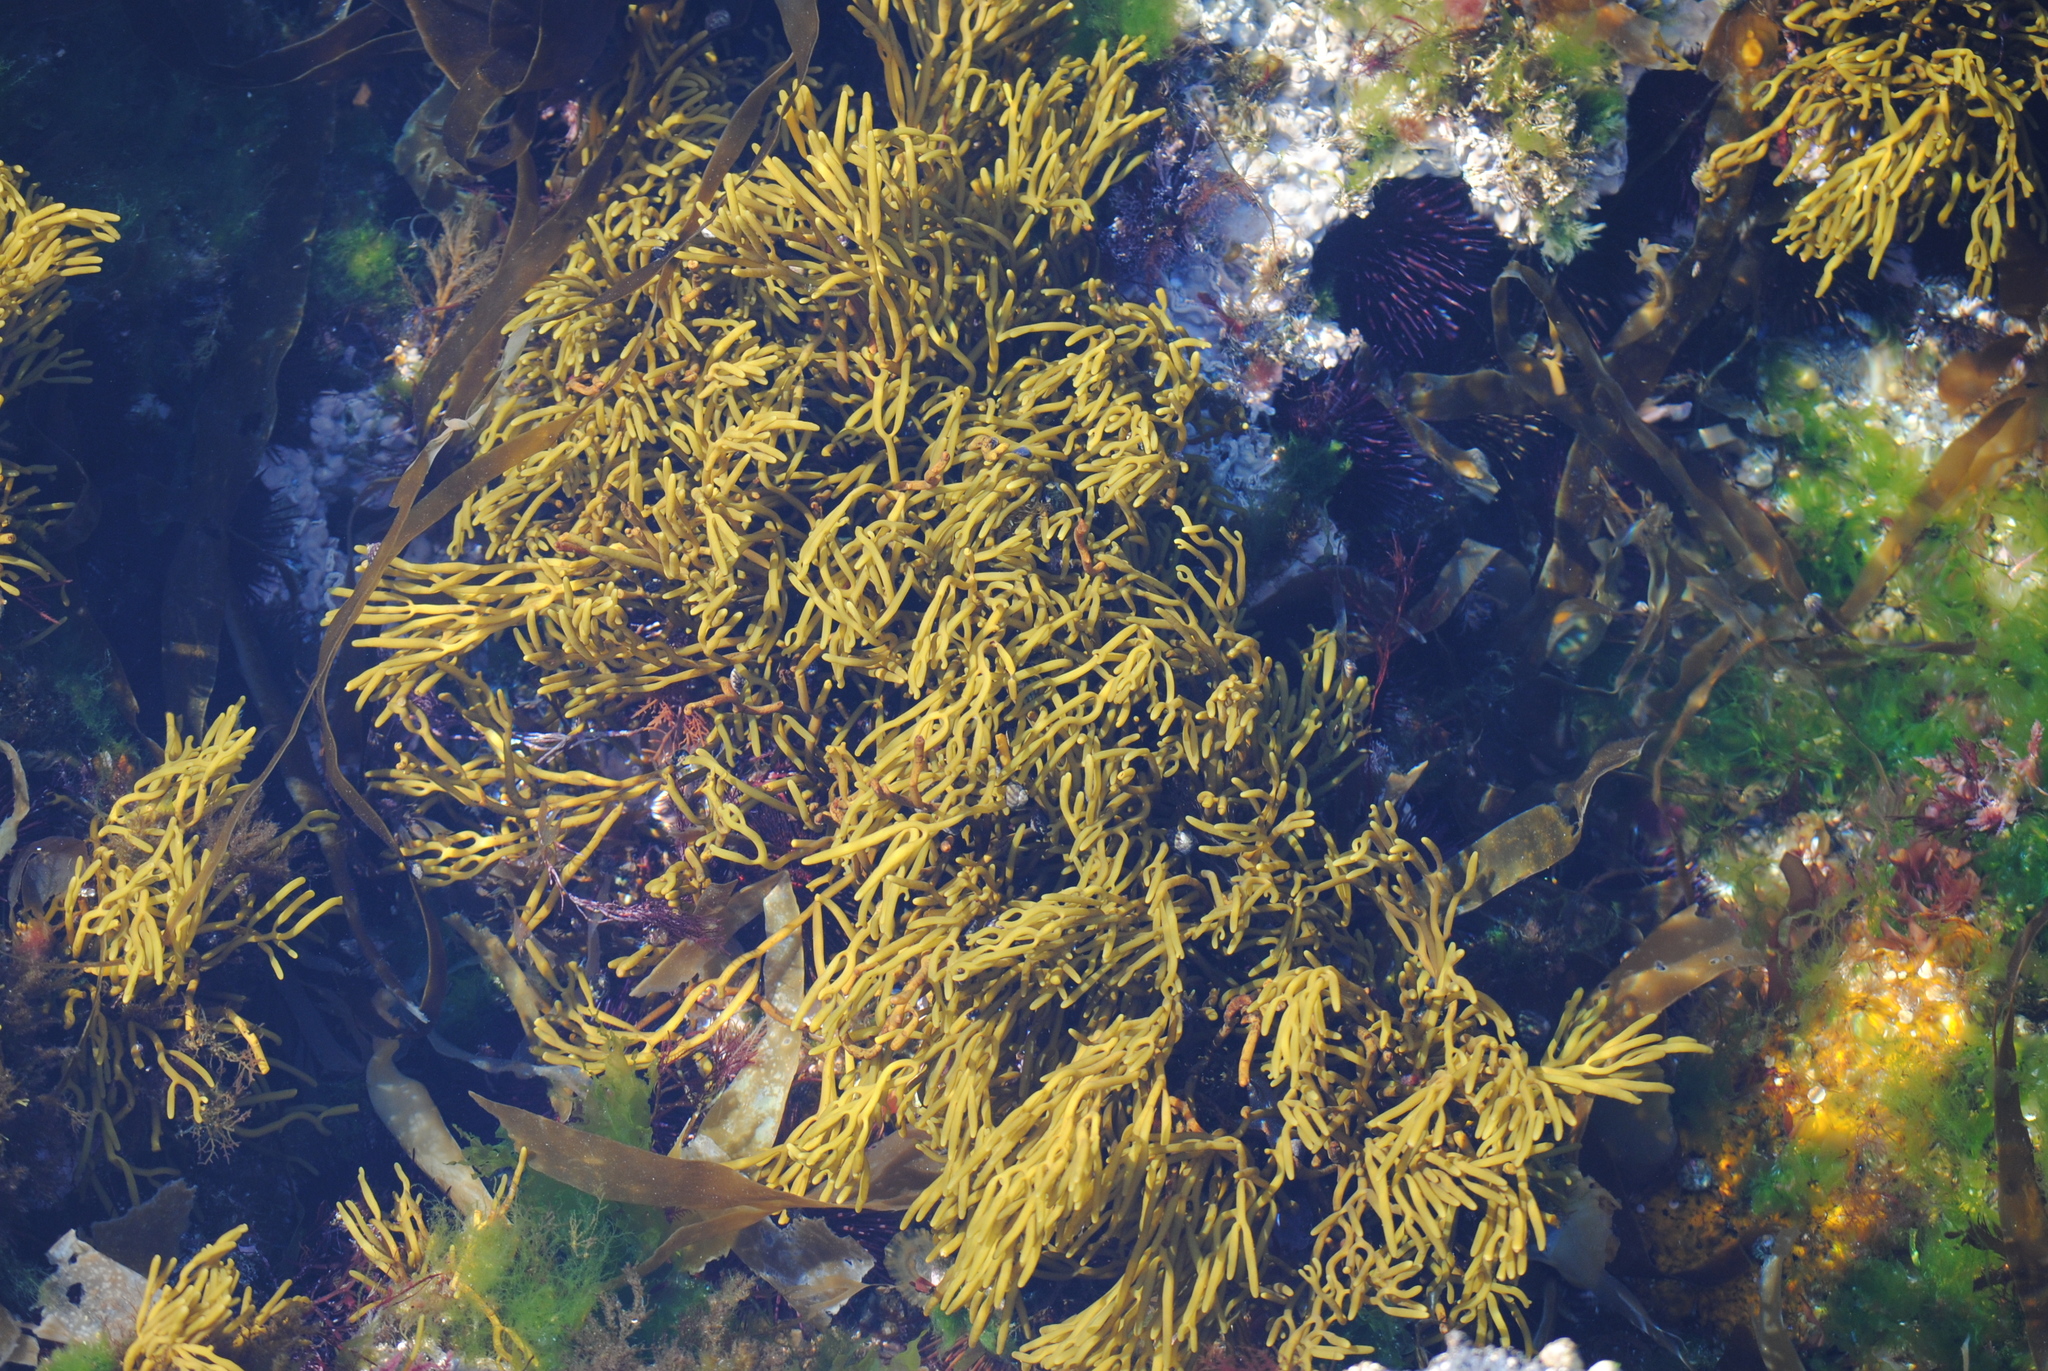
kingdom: Chromista
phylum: Ochrophyta
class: Phaeophyceae
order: Fucales
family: Sargassaceae
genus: Bifurcaria
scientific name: Bifurcaria bifurcata
